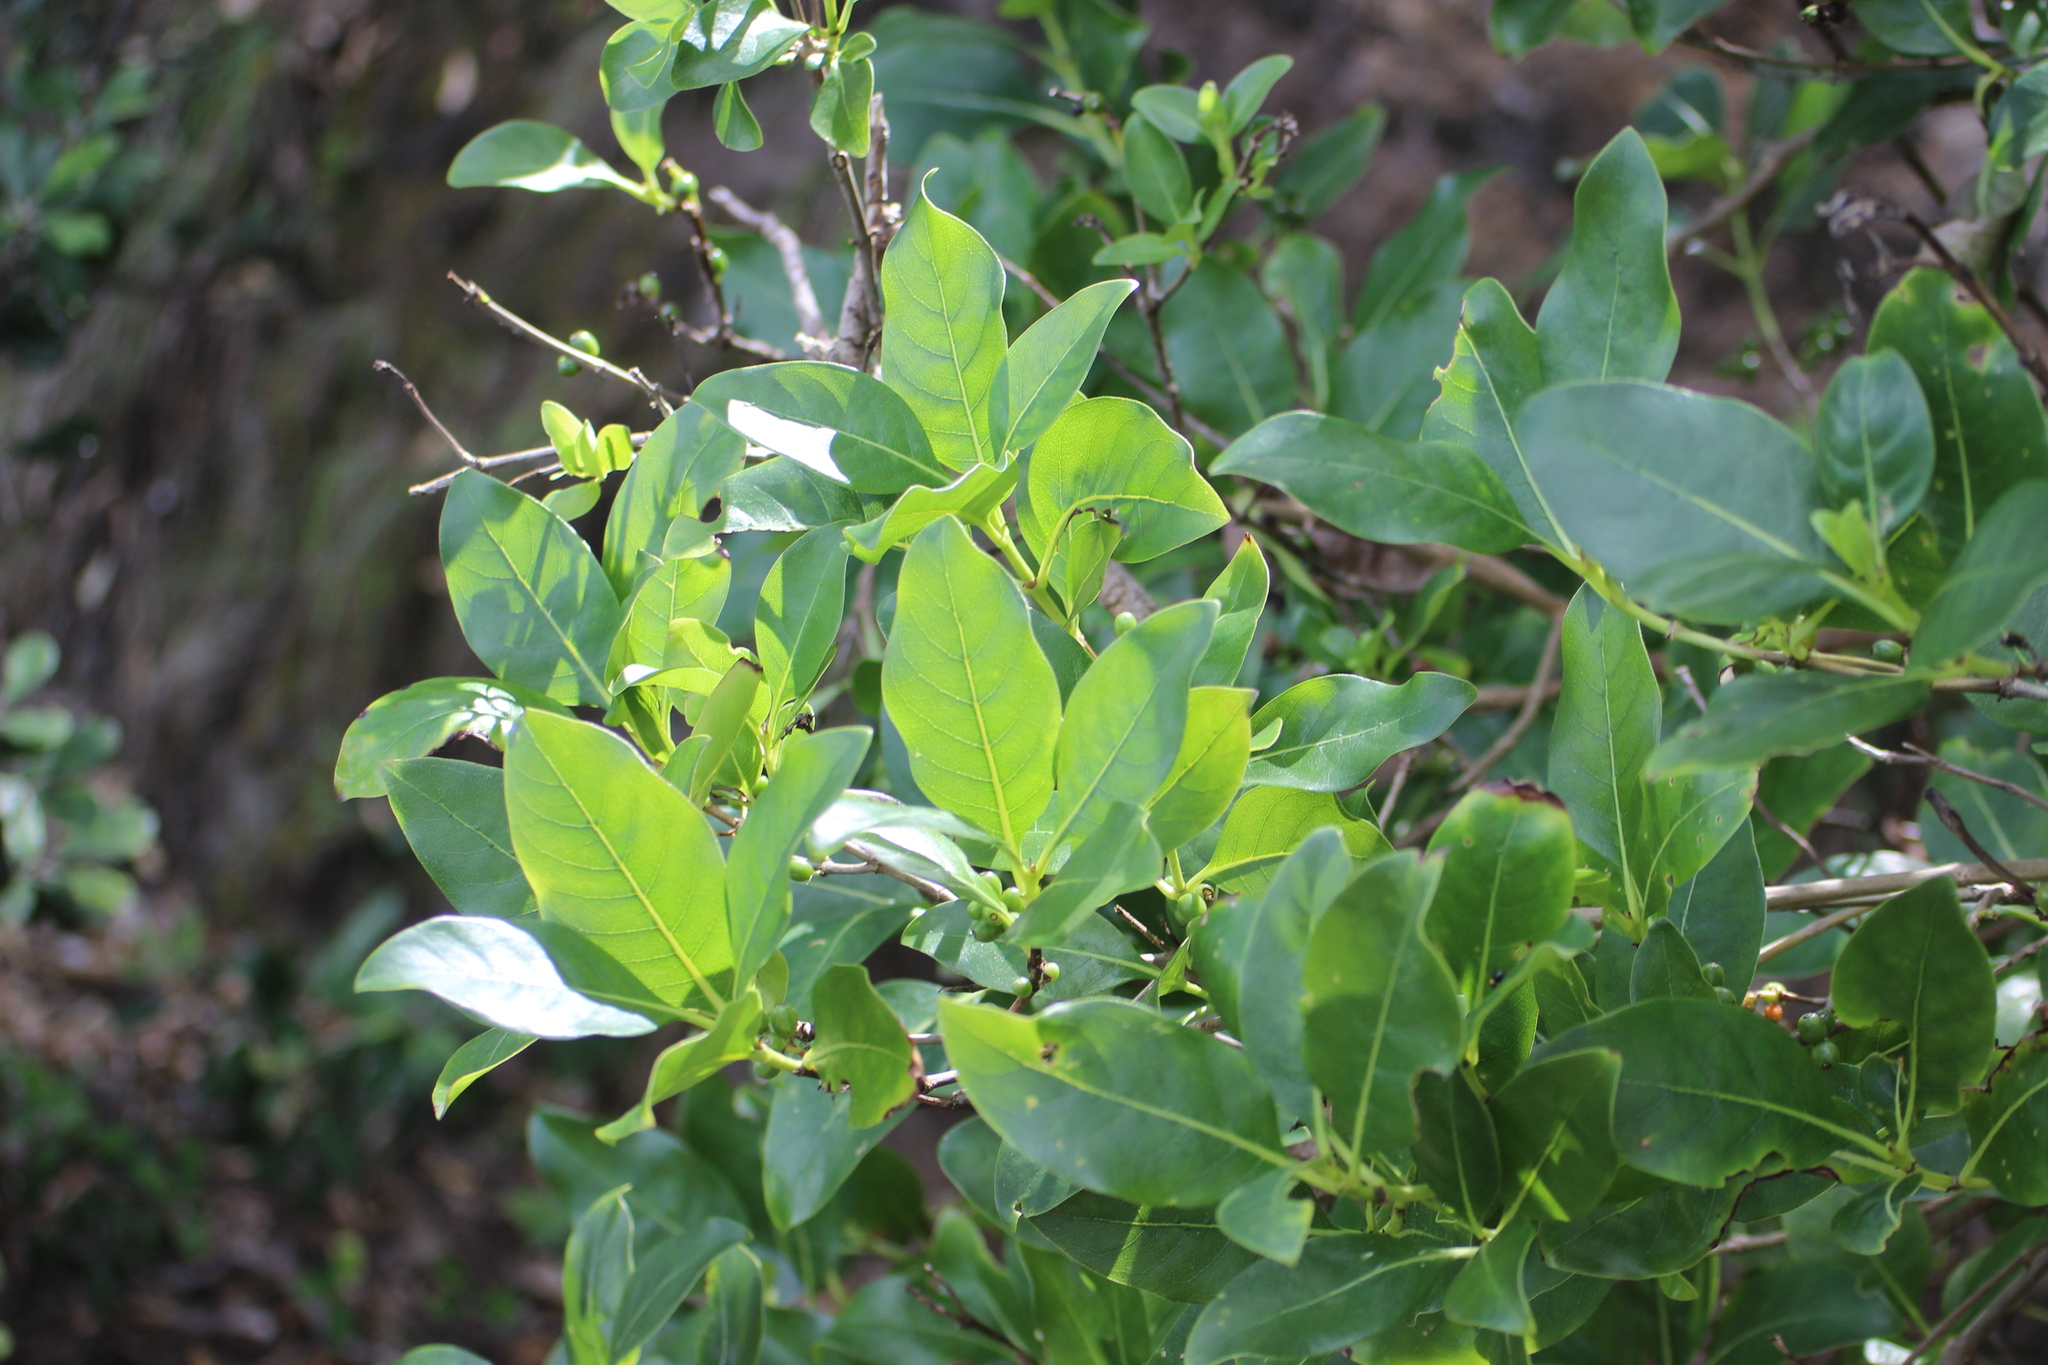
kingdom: Plantae
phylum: Tracheophyta
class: Magnoliopsida
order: Gentianales
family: Rubiaceae
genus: Coprosma
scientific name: Coprosma macrocarpa
